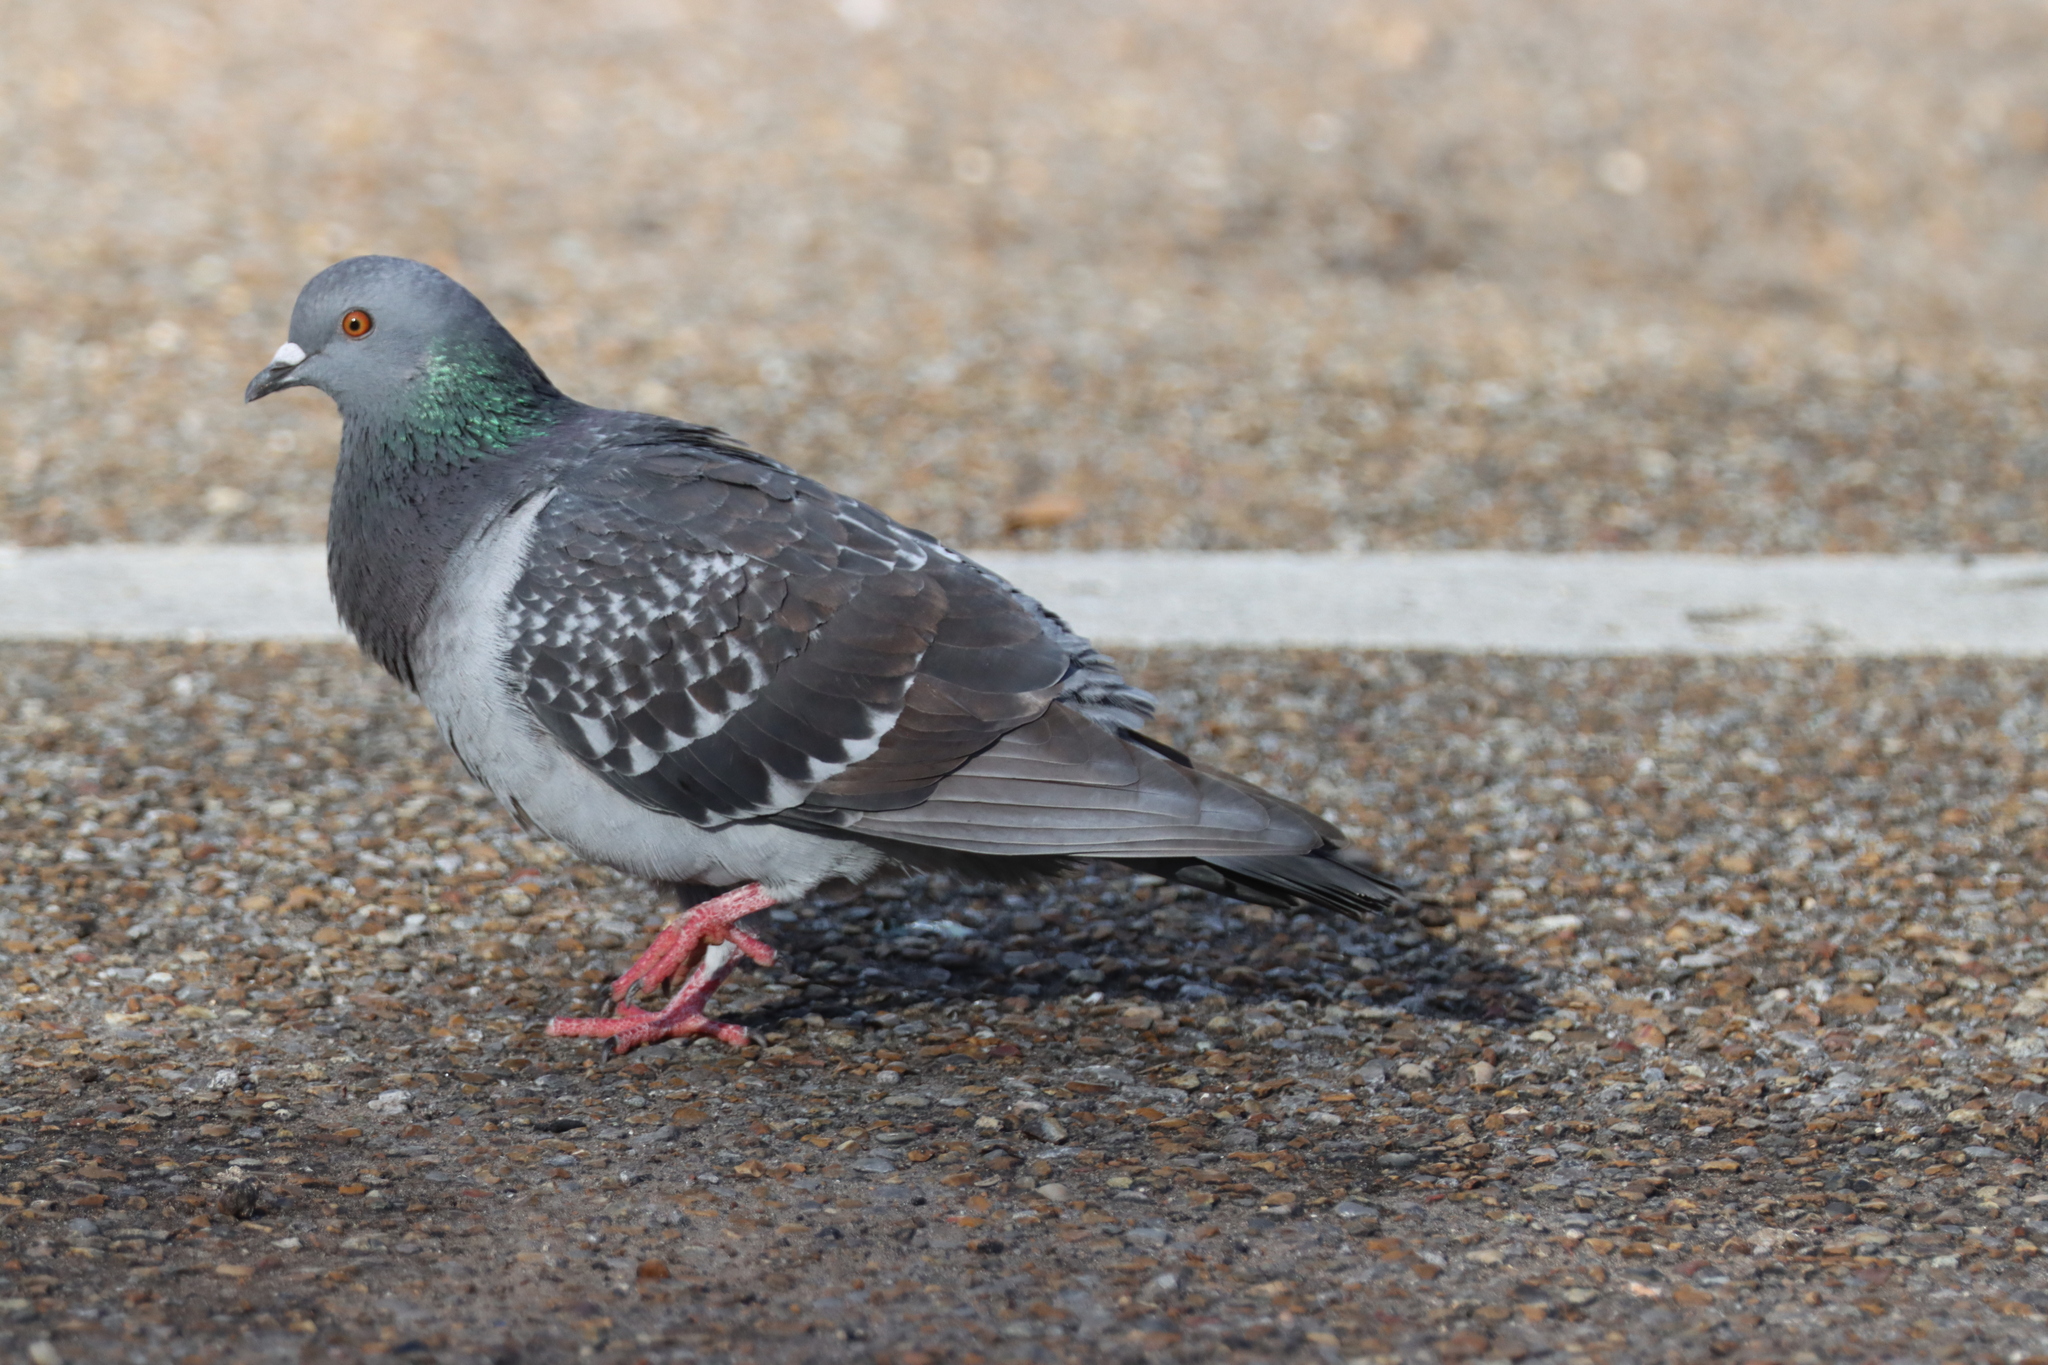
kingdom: Animalia
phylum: Chordata
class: Aves
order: Columbiformes
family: Columbidae
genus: Columba
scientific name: Columba livia
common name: Rock pigeon
